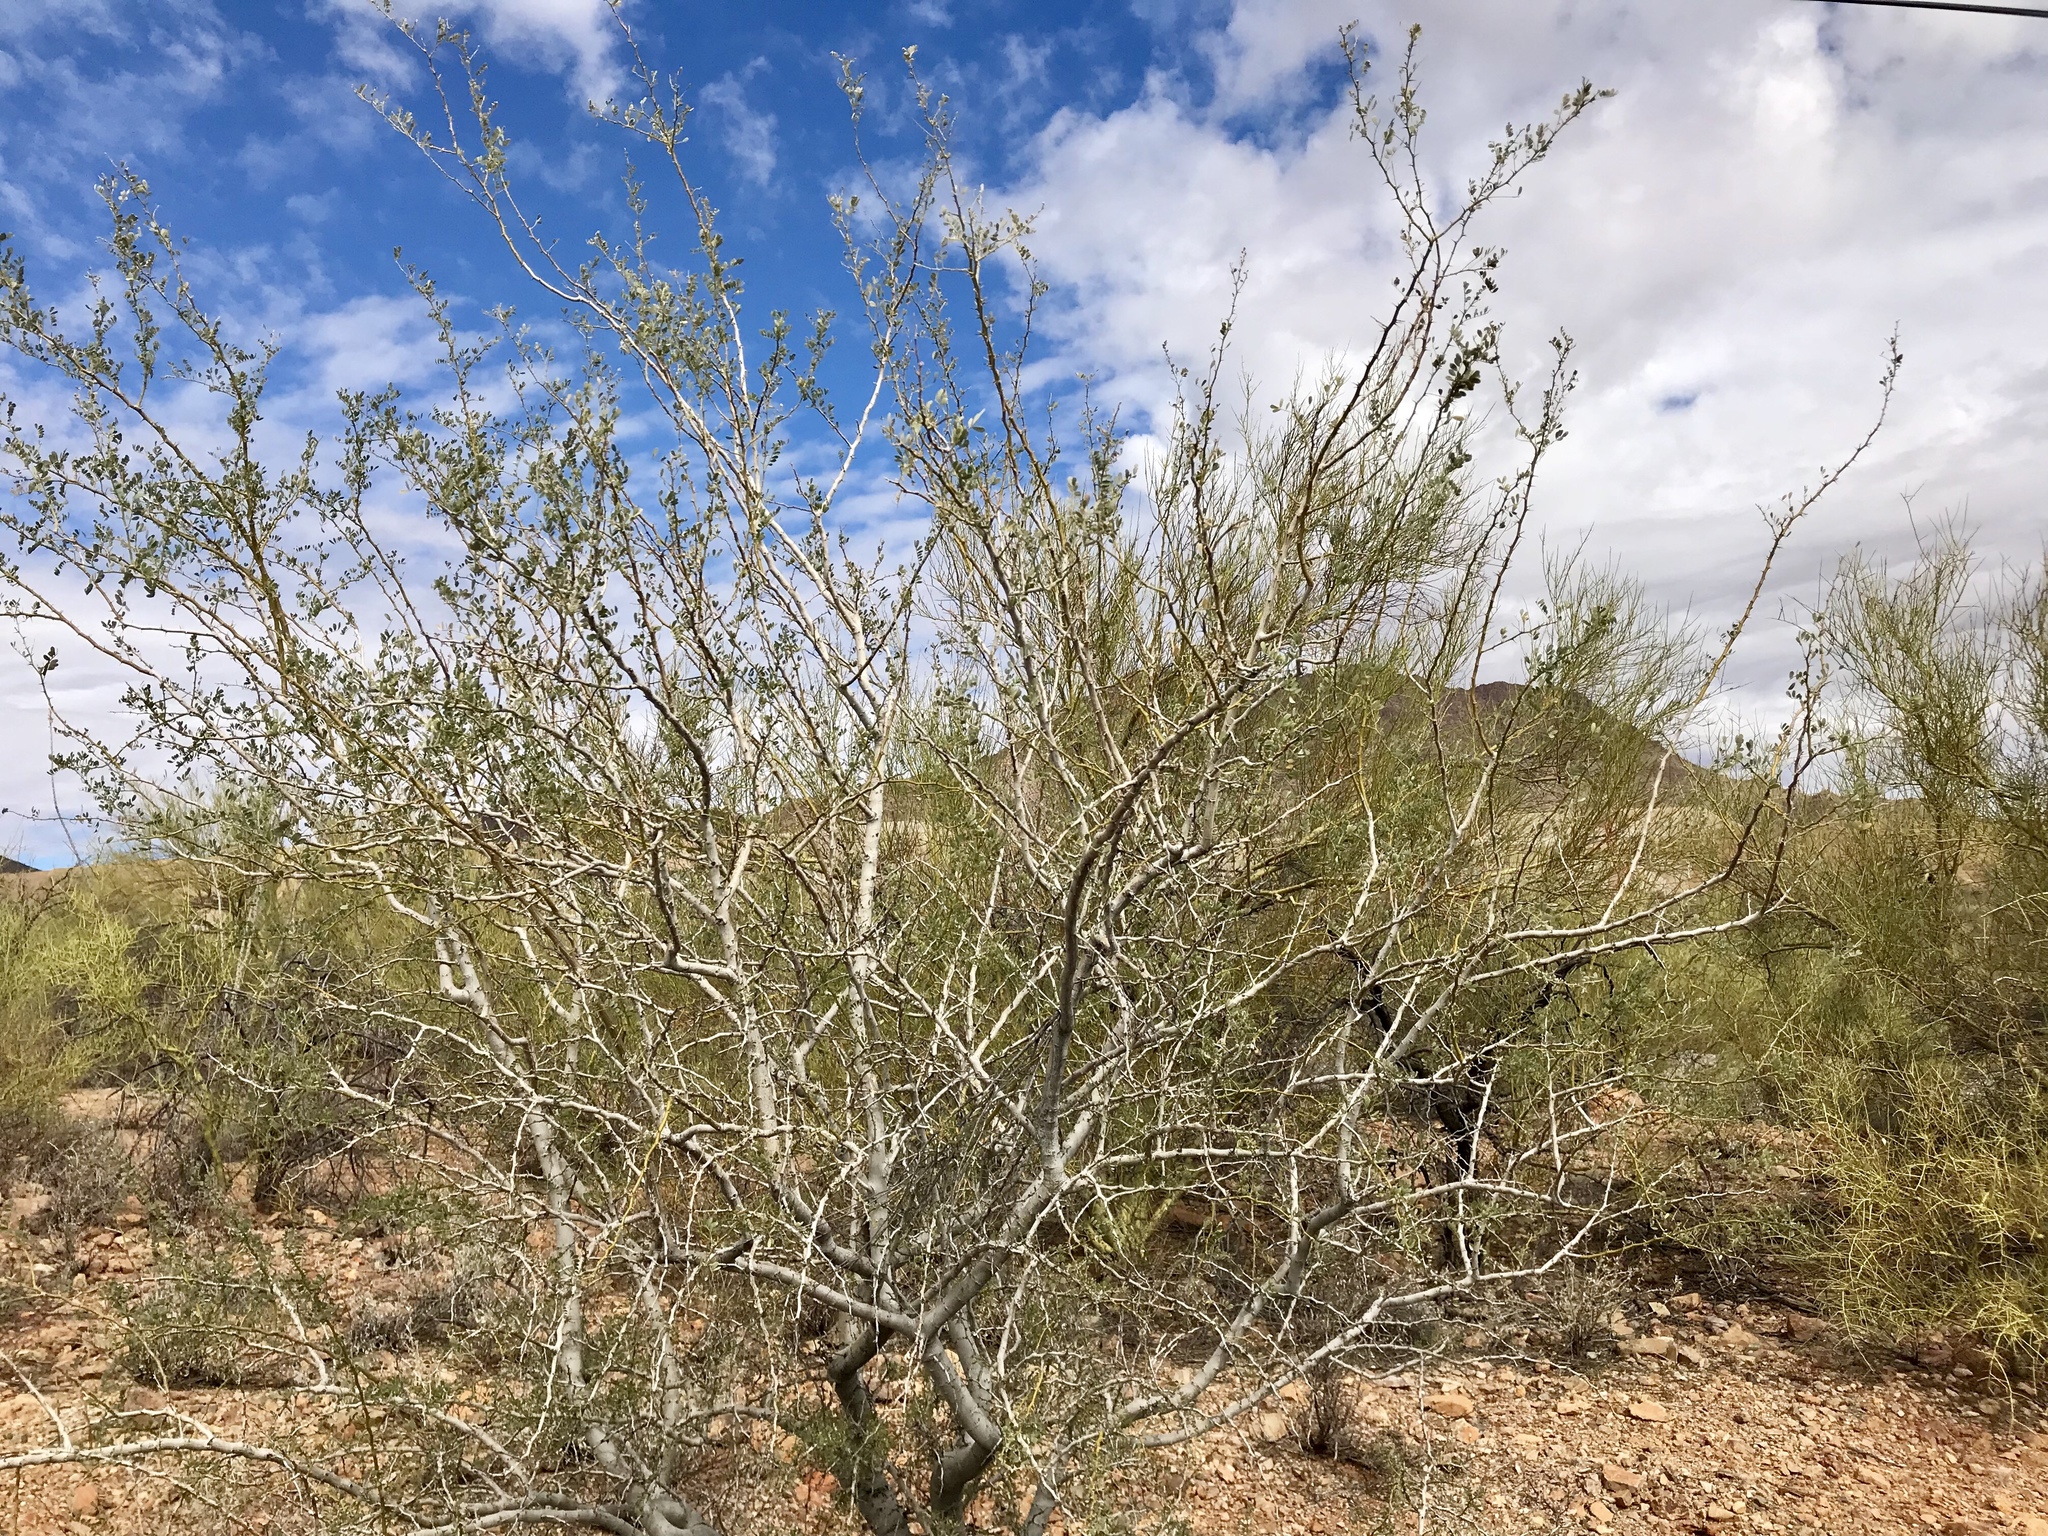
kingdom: Plantae
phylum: Tracheophyta
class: Magnoliopsida
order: Fabales
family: Fabaceae
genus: Olneya
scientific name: Olneya tesota
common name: Desert ironwood
